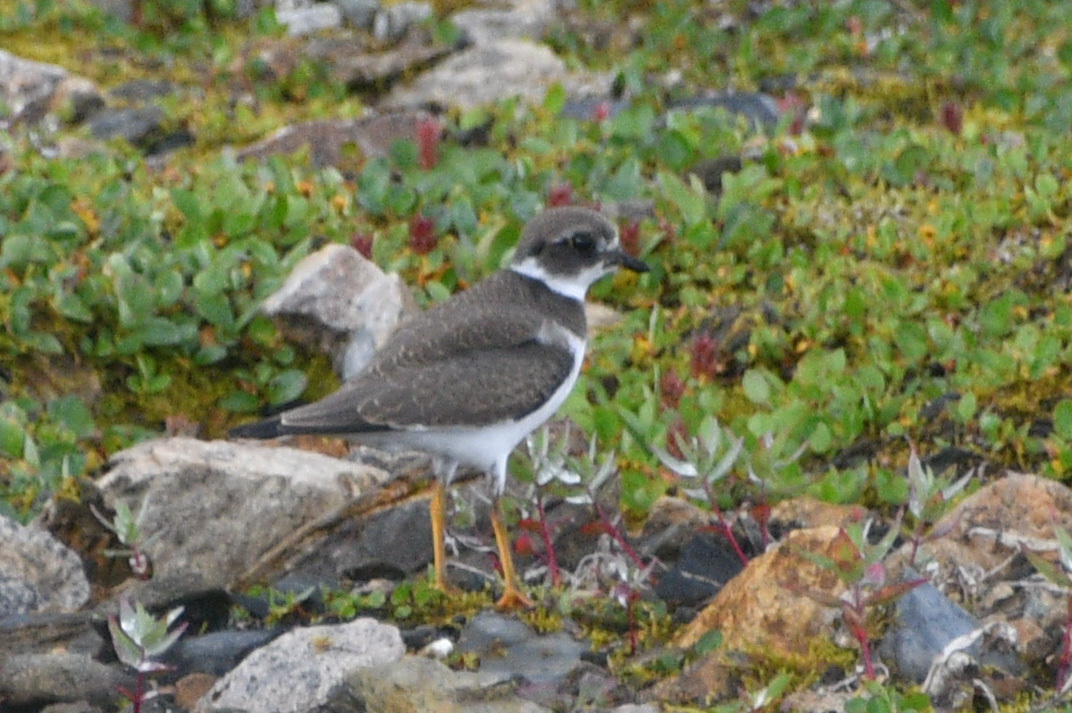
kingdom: Animalia
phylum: Chordata
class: Aves
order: Charadriiformes
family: Charadriidae
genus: Charadrius
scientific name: Charadrius semipalmatus
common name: Semipalmated plover
